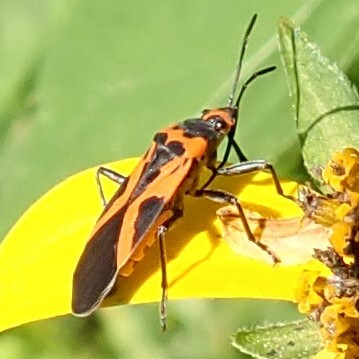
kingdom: Animalia
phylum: Arthropoda
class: Insecta
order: Hemiptera
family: Lygaeidae
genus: Lygaeus
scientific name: Lygaeus turcicus
